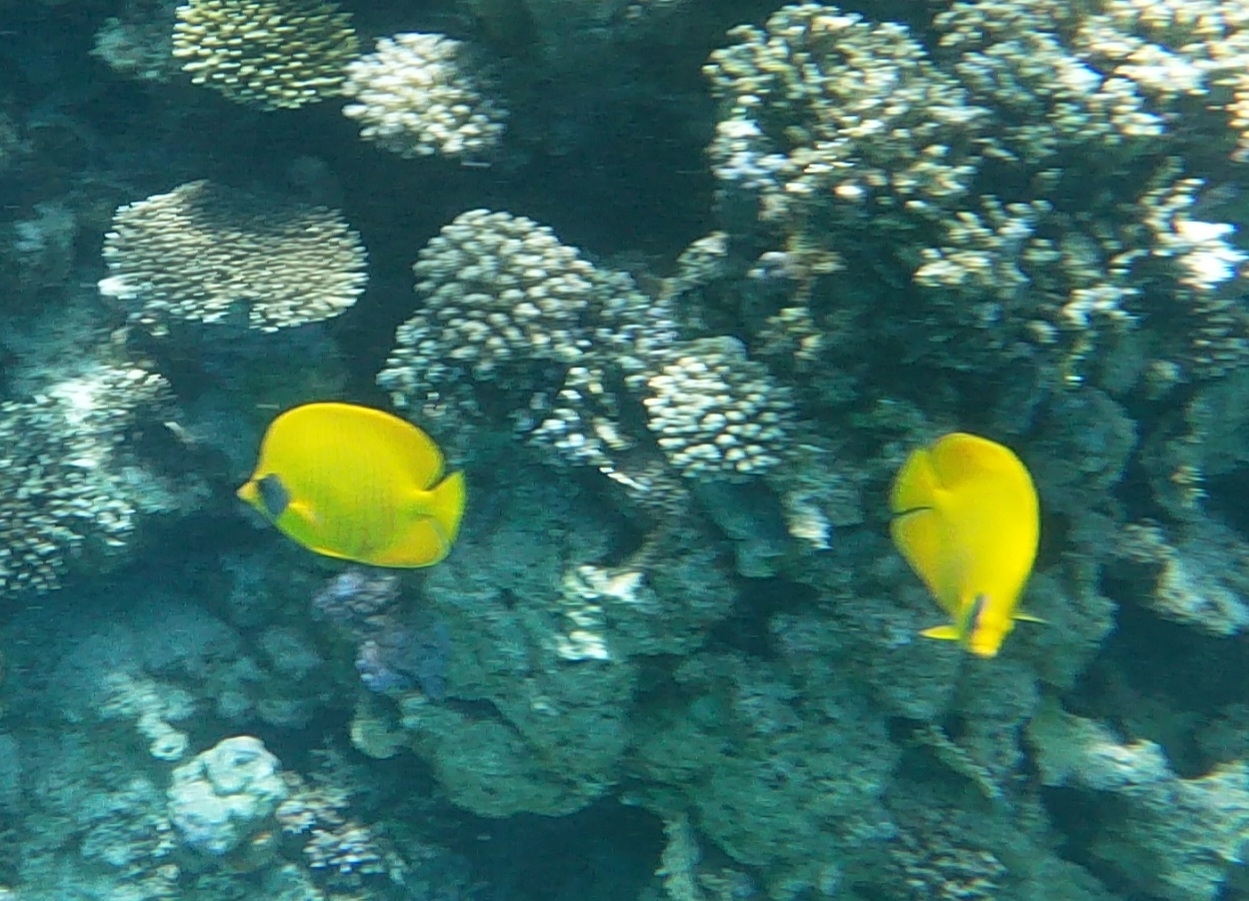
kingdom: Animalia
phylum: Chordata
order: Perciformes
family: Chaetodontidae
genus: Chaetodon
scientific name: Chaetodon semilarvatus
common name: Golden butterflyfish
